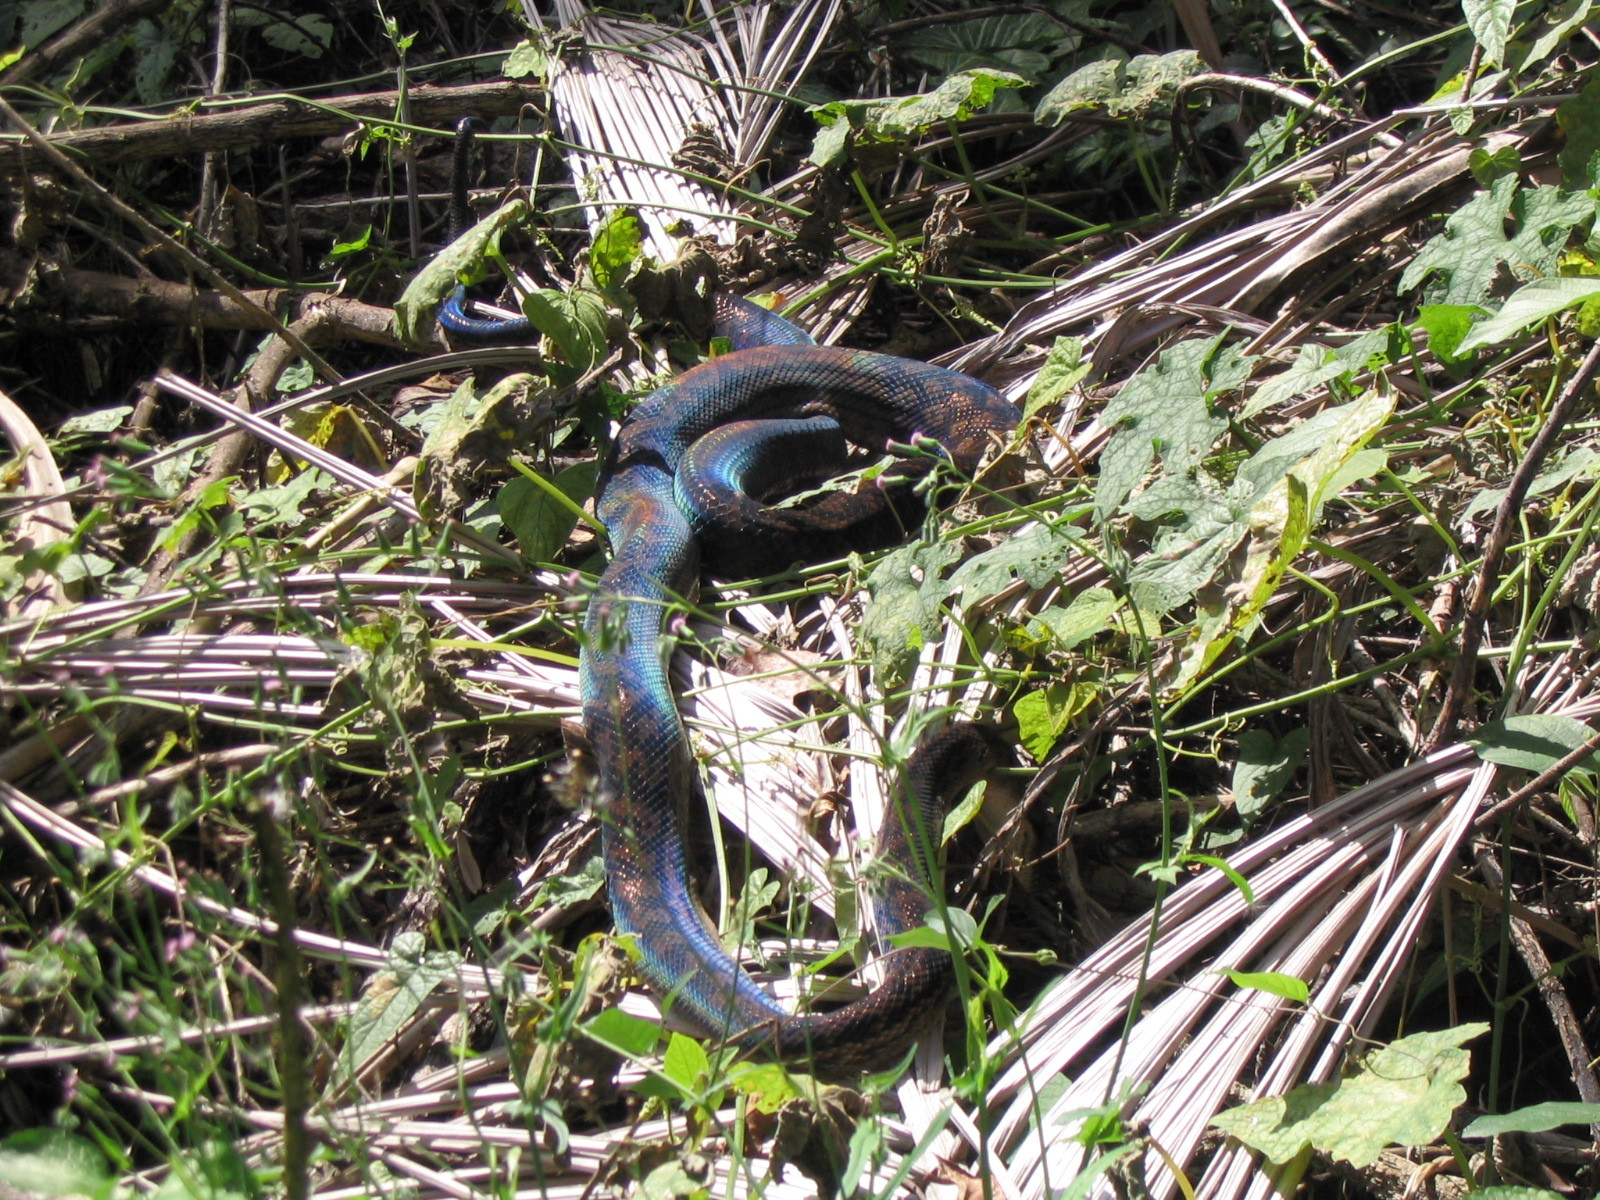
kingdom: Animalia
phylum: Chordata
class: Squamata
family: Pythonidae
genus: Simalia
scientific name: Simalia kinghorni
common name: Scrub python
